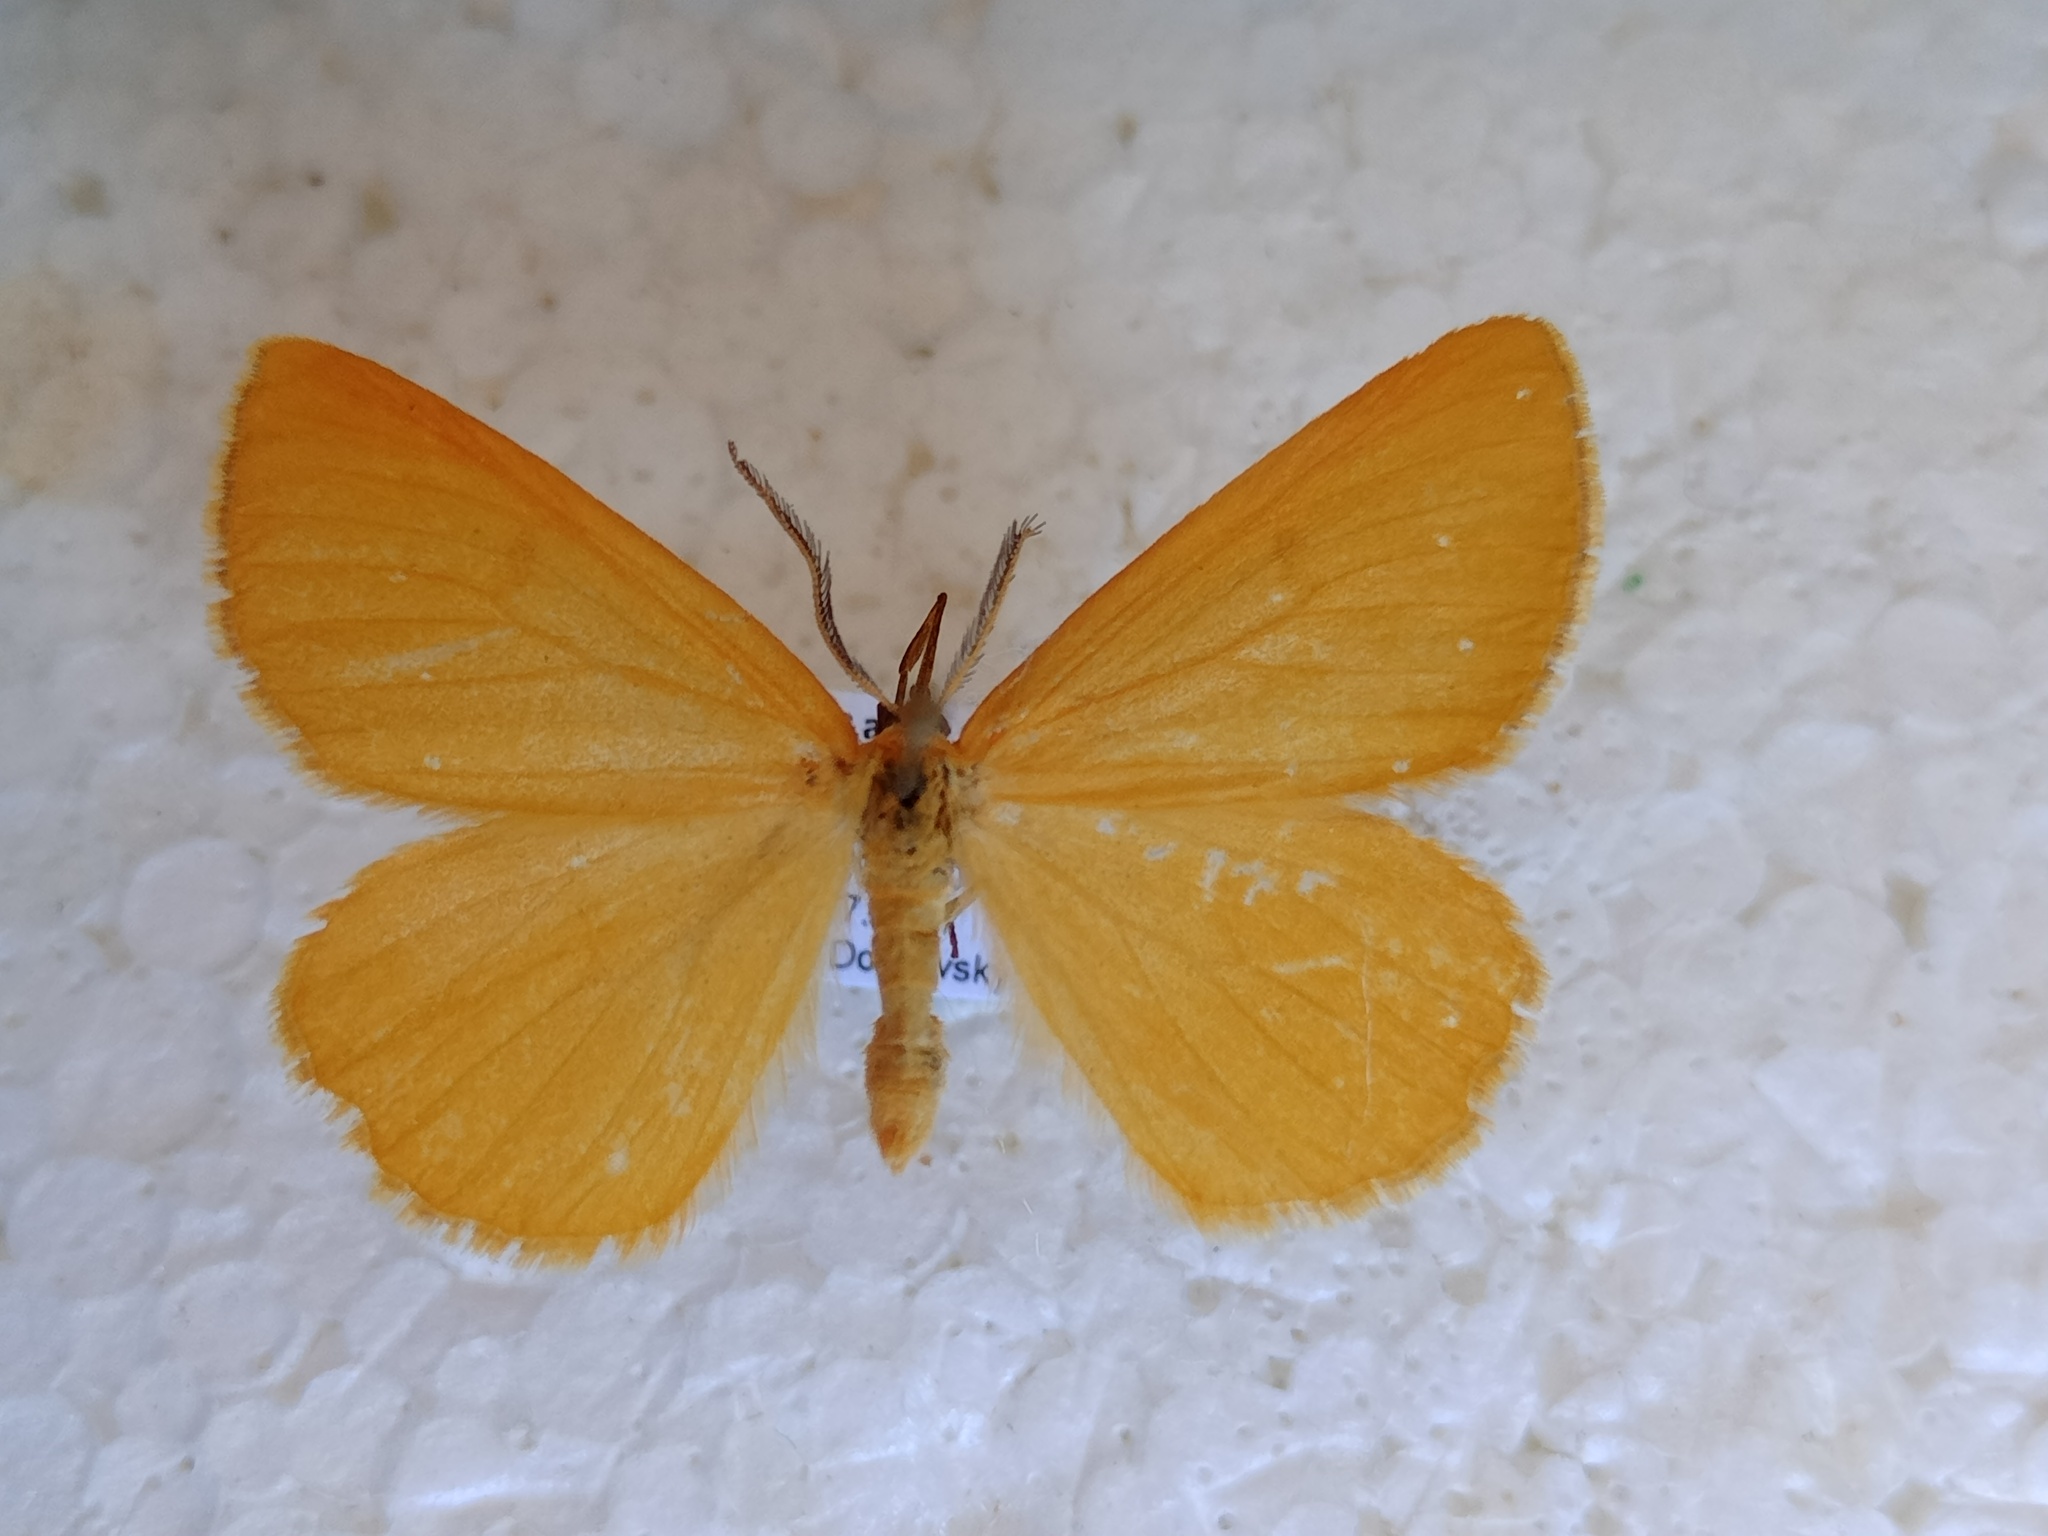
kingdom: Animalia
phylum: Arthropoda
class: Insecta
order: Lepidoptera
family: Geometridae
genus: Crocota
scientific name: Crocota tinctaria
